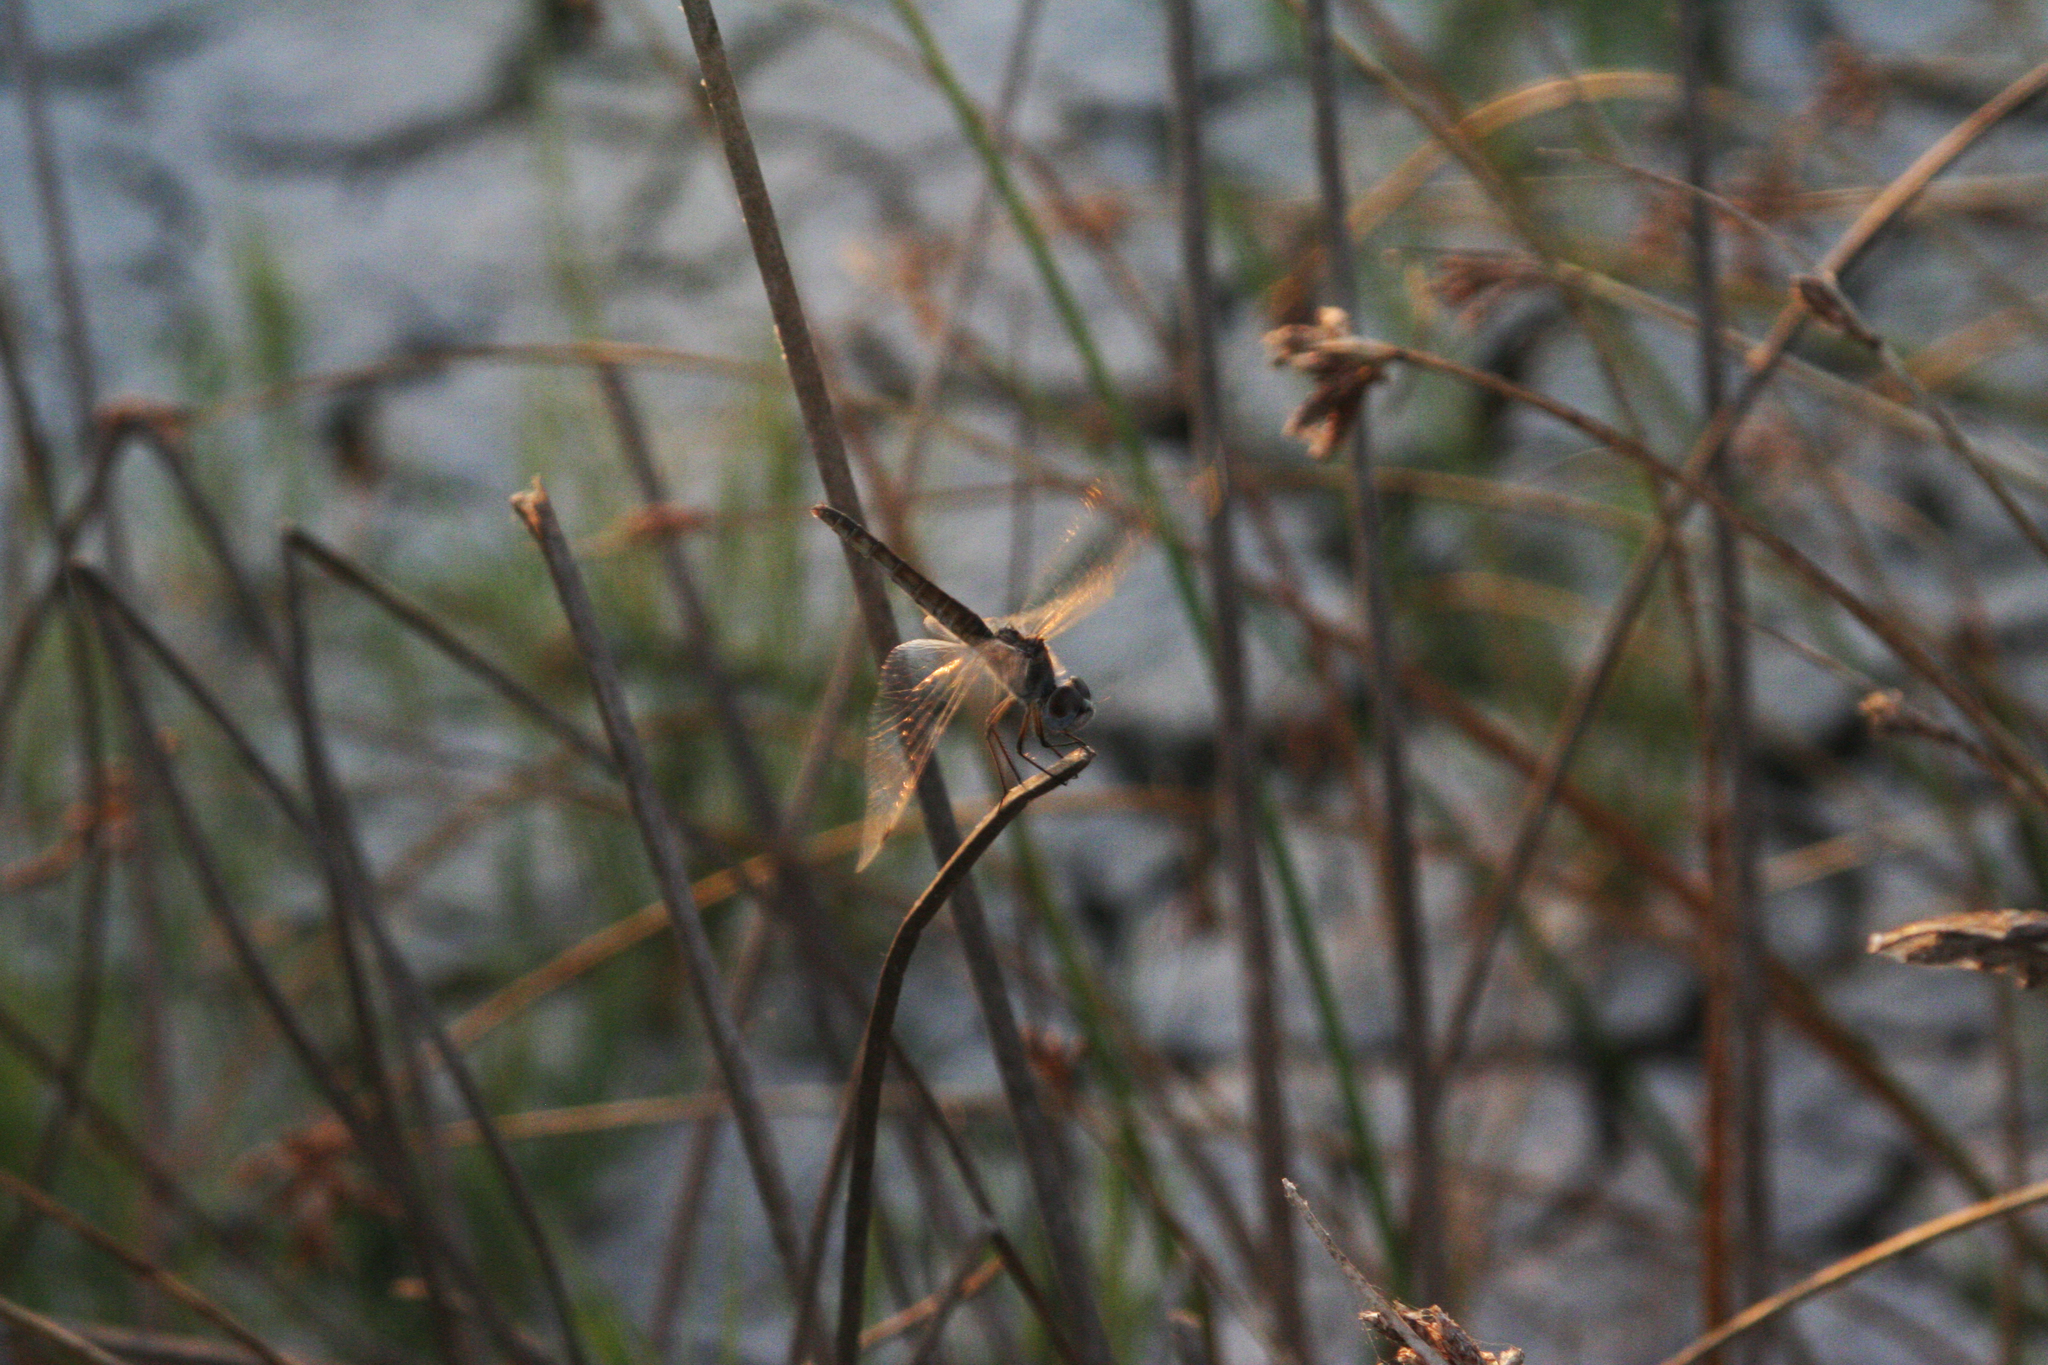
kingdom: Animalia
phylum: Arthropoda
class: Insecta
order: Odonata
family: Libellulidae
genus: Selysiothemis
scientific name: Selysiothemis nigra
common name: Black pennant
